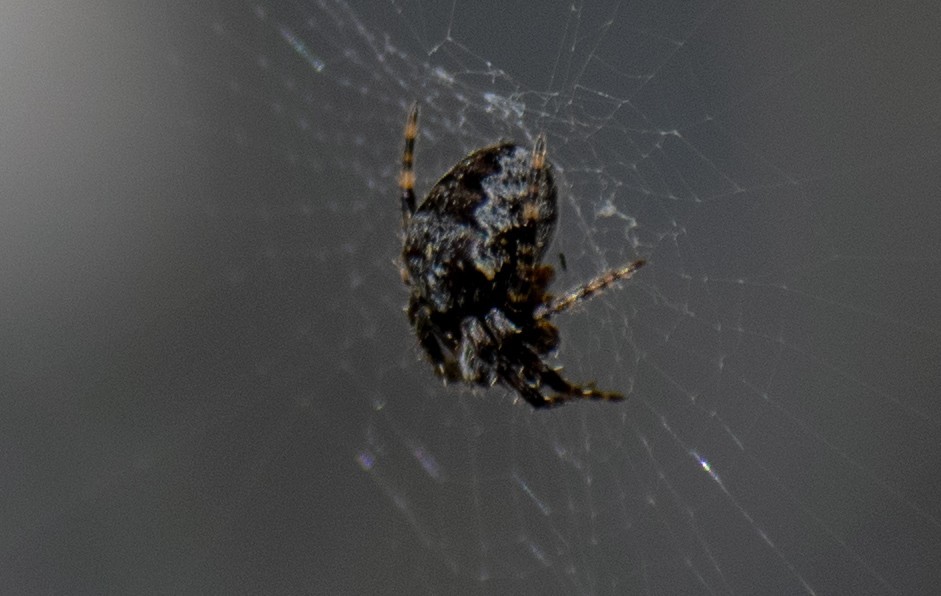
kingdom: Animalia
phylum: Arthropoda
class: Arachnida
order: Araneae
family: Araneidae
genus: Araneus
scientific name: Araneus diadematus
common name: Cross orbweaver
